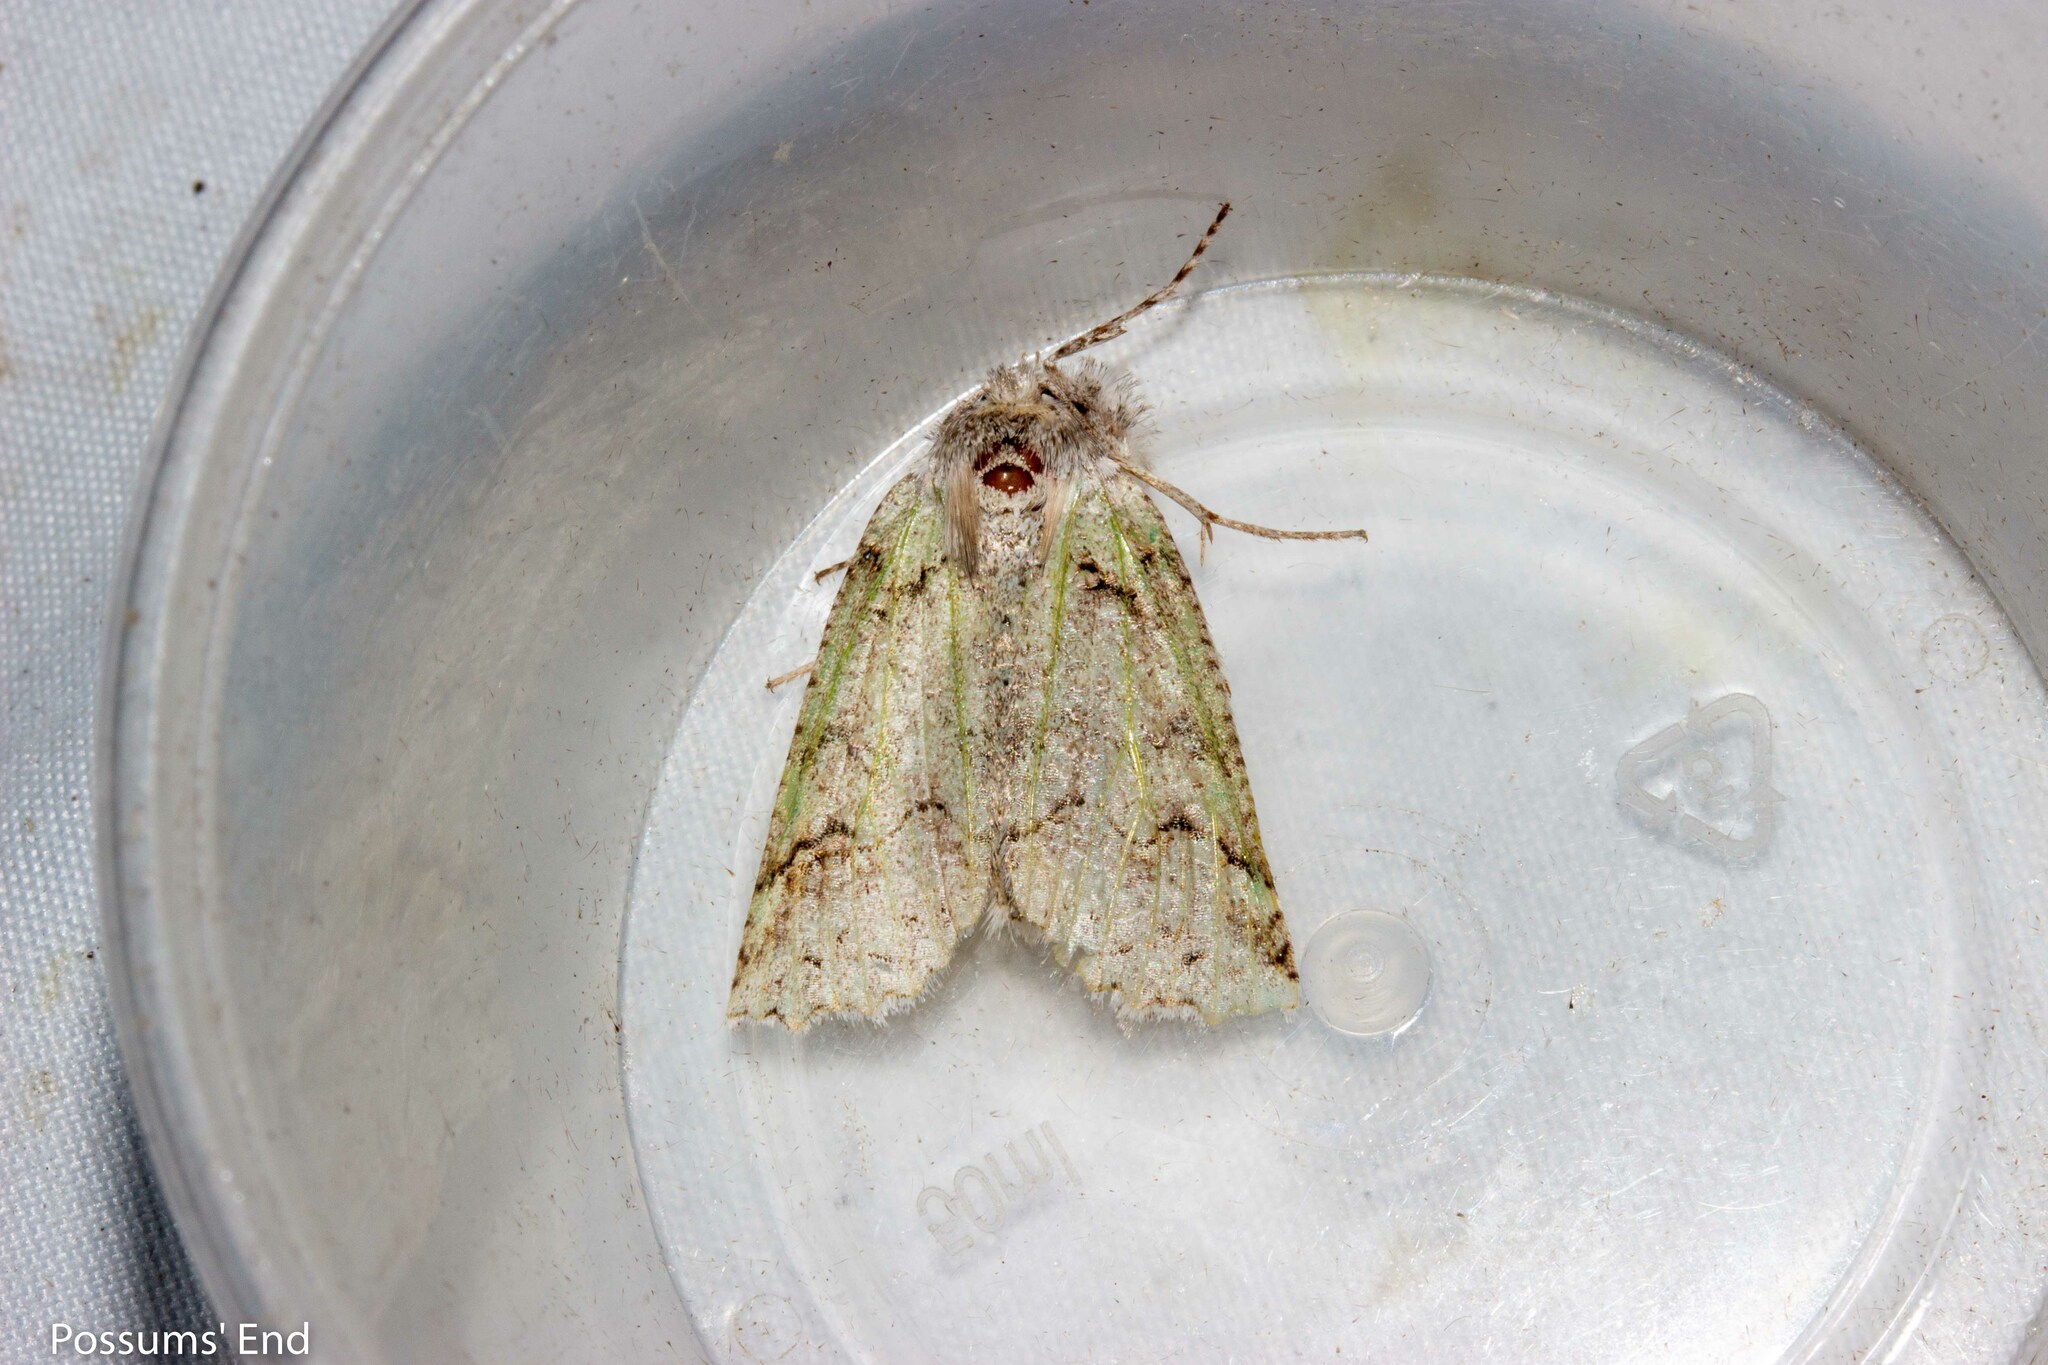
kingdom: Animalia
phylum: Arthropoda
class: Insecta
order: Lepidoptera
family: Geometridae
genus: Declana
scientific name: Declana floccosa
